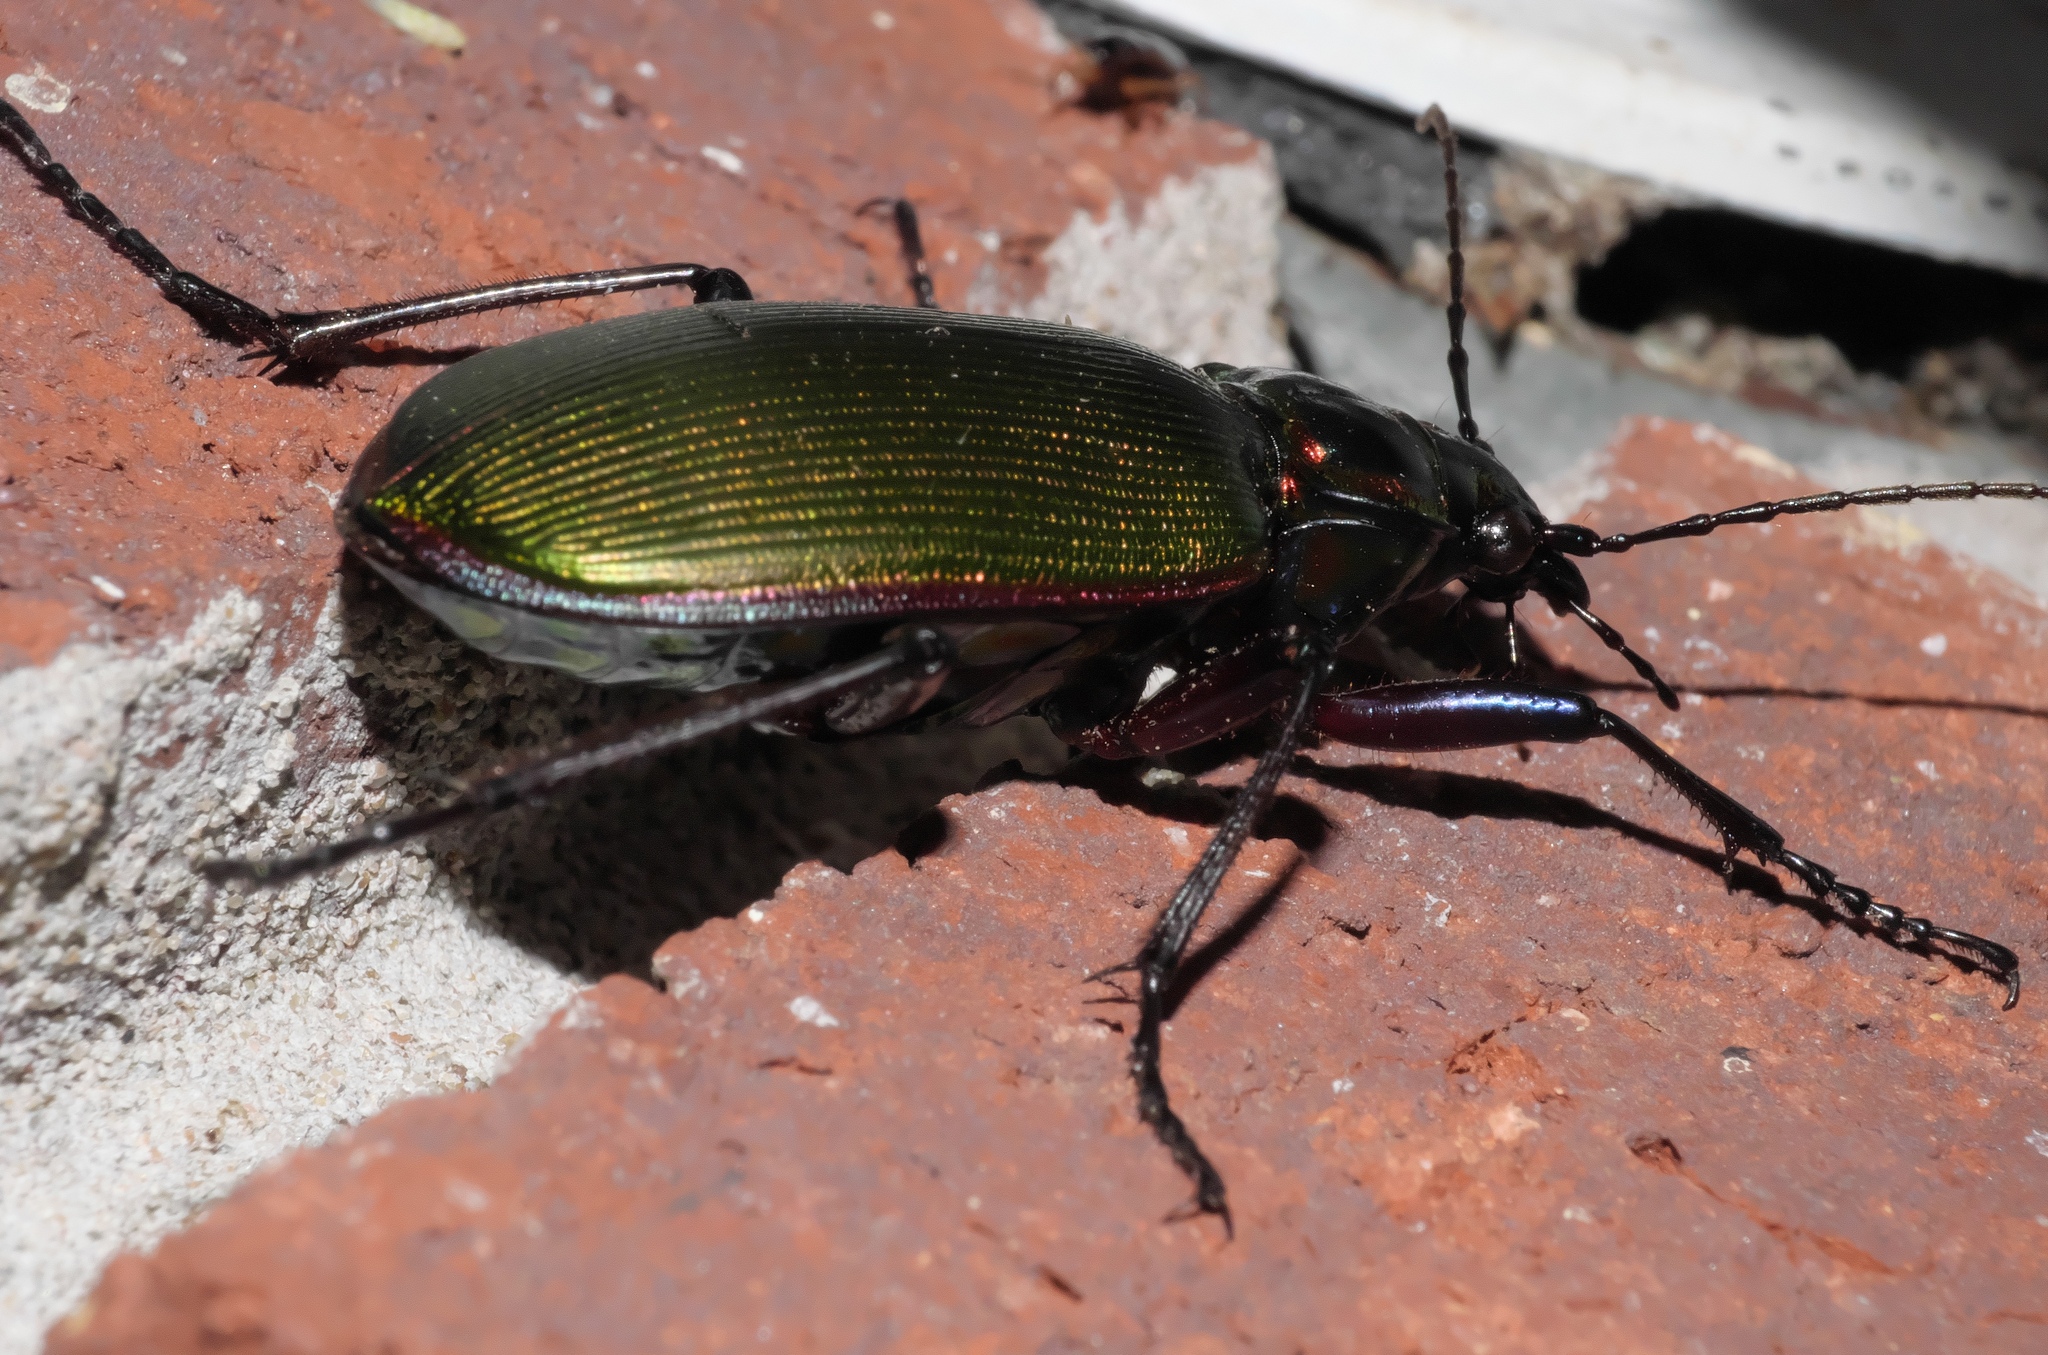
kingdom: Animalia
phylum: Arthropoda
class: Insecta
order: Coleoptera
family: Carabidae
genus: Calosoma
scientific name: Calosoma scrutator
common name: Fiery searcher beetle
